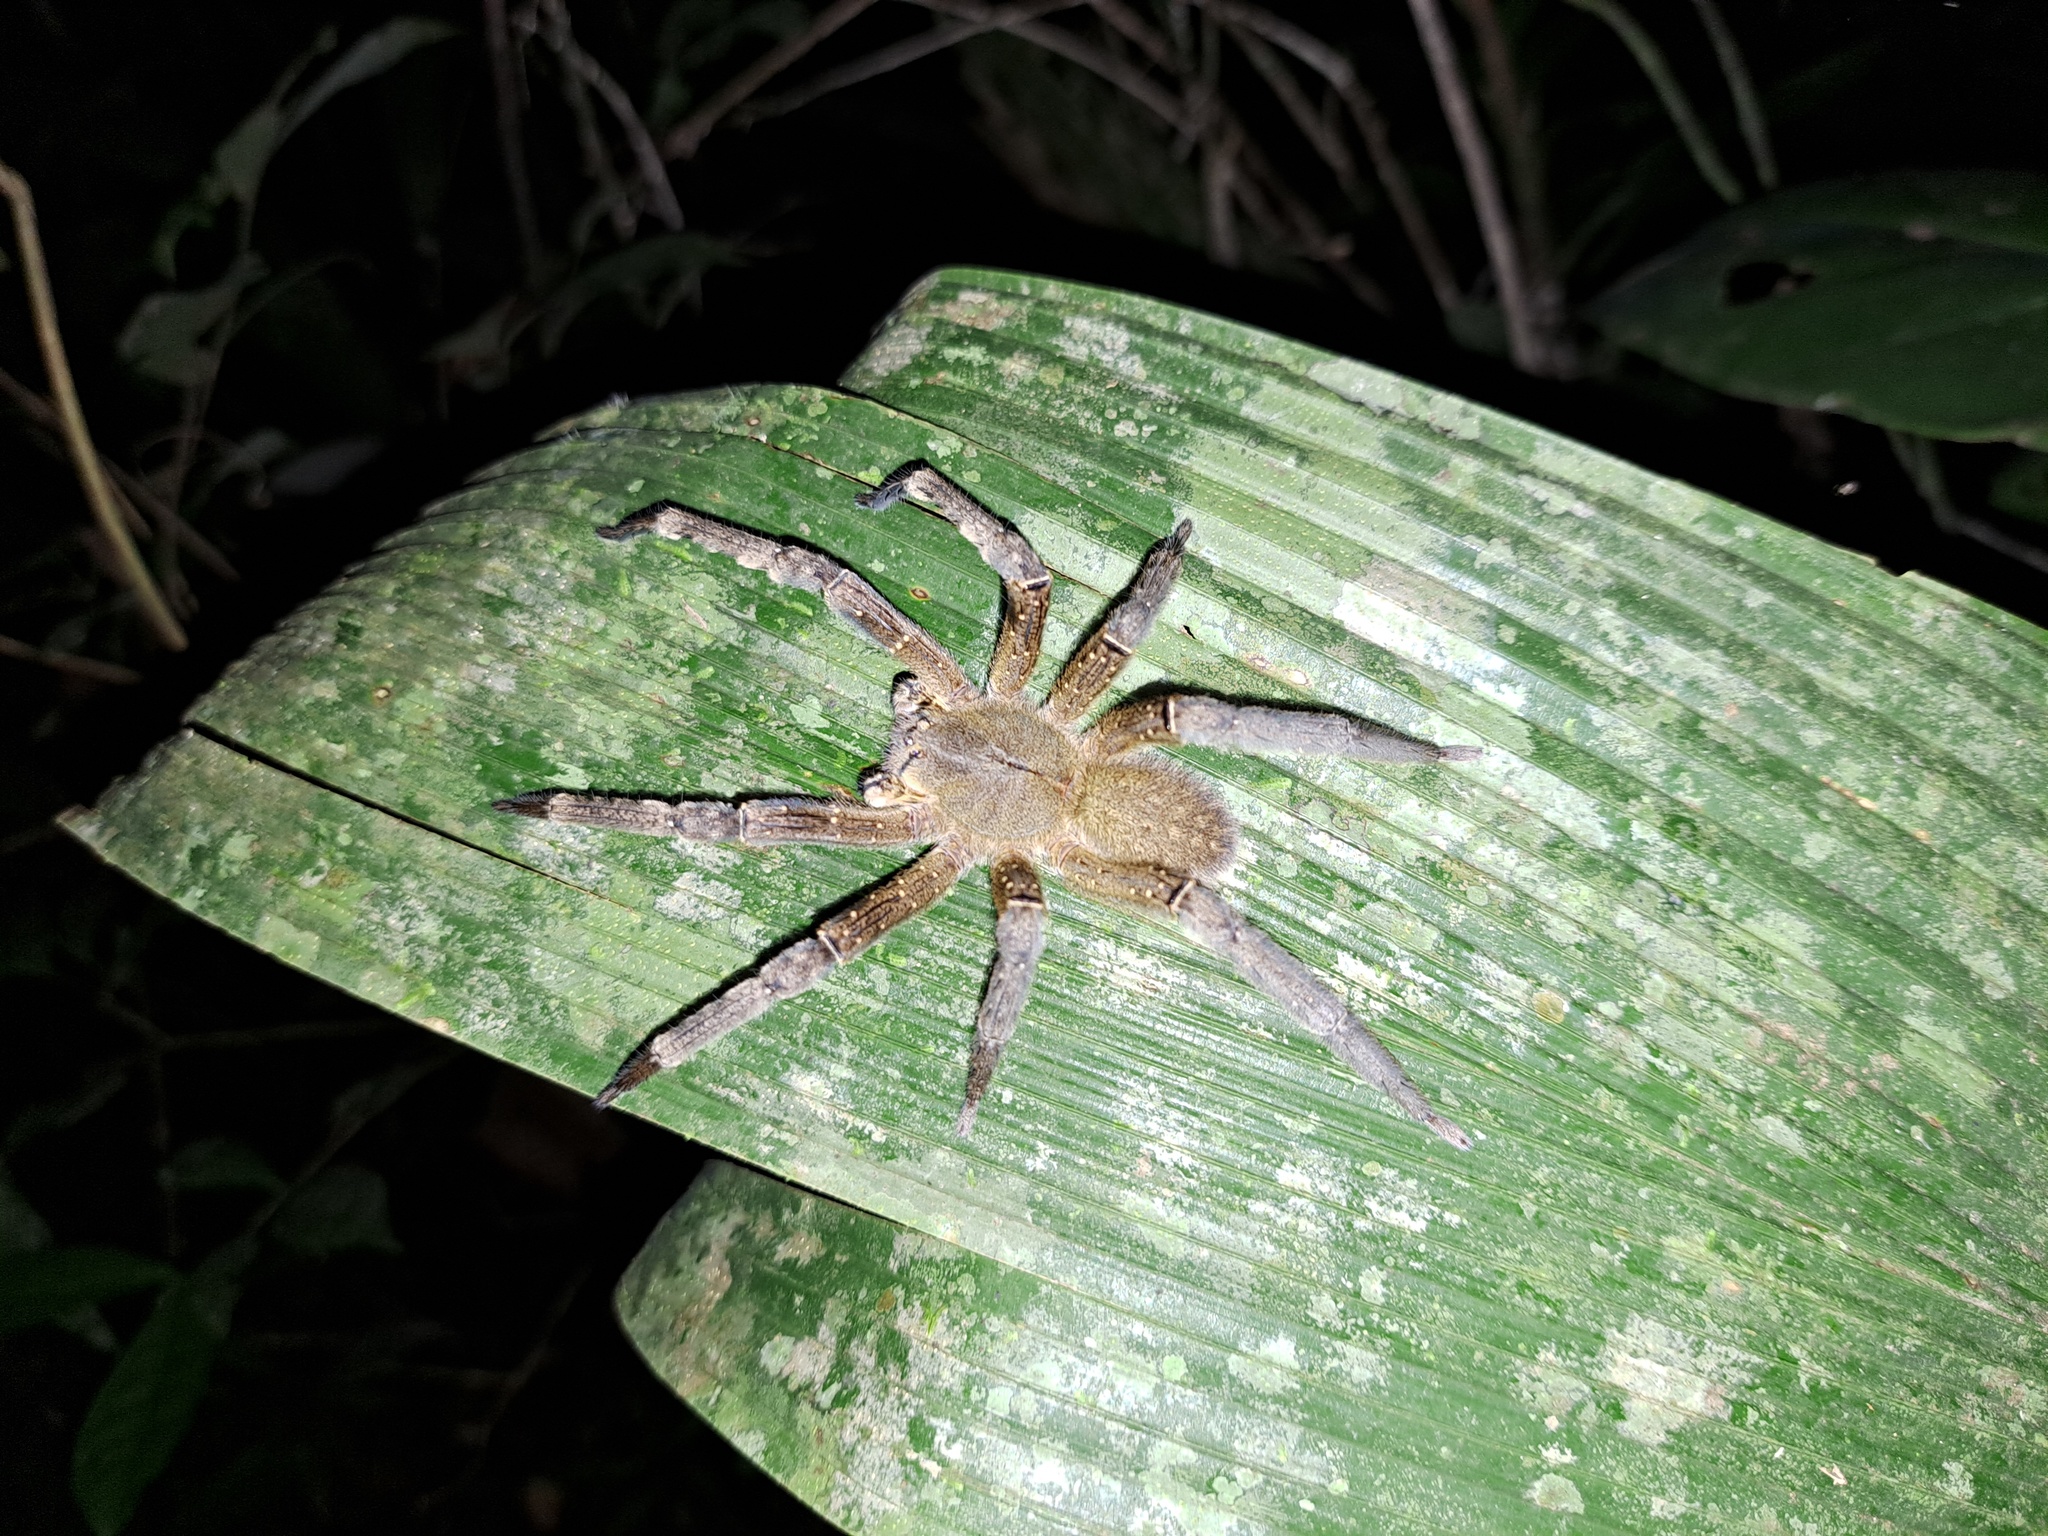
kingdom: Animalia
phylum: Arthropoda
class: Arachnida
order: Araneae
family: Ctenidae
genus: Phoneutria
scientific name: Phoneutria fera
